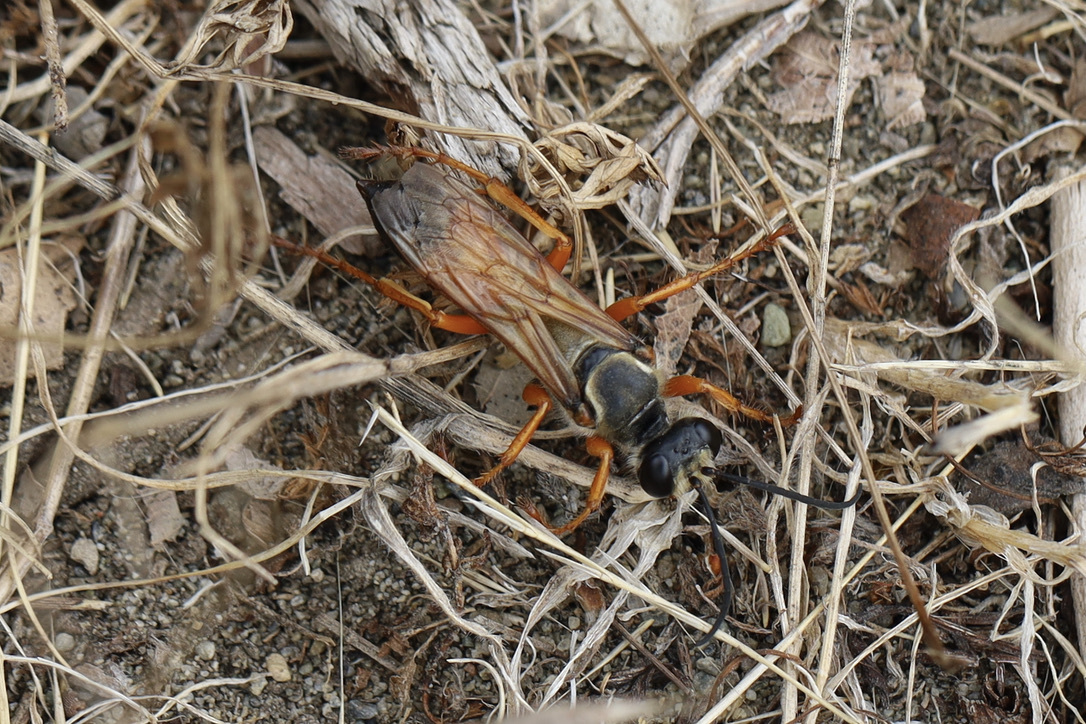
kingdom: Animalia
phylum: Arthropoda
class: Insecta
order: Hymenoptera
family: Sphecidae
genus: Sphex
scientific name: Sphex ichneumoneus
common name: Great golden digger wasp
